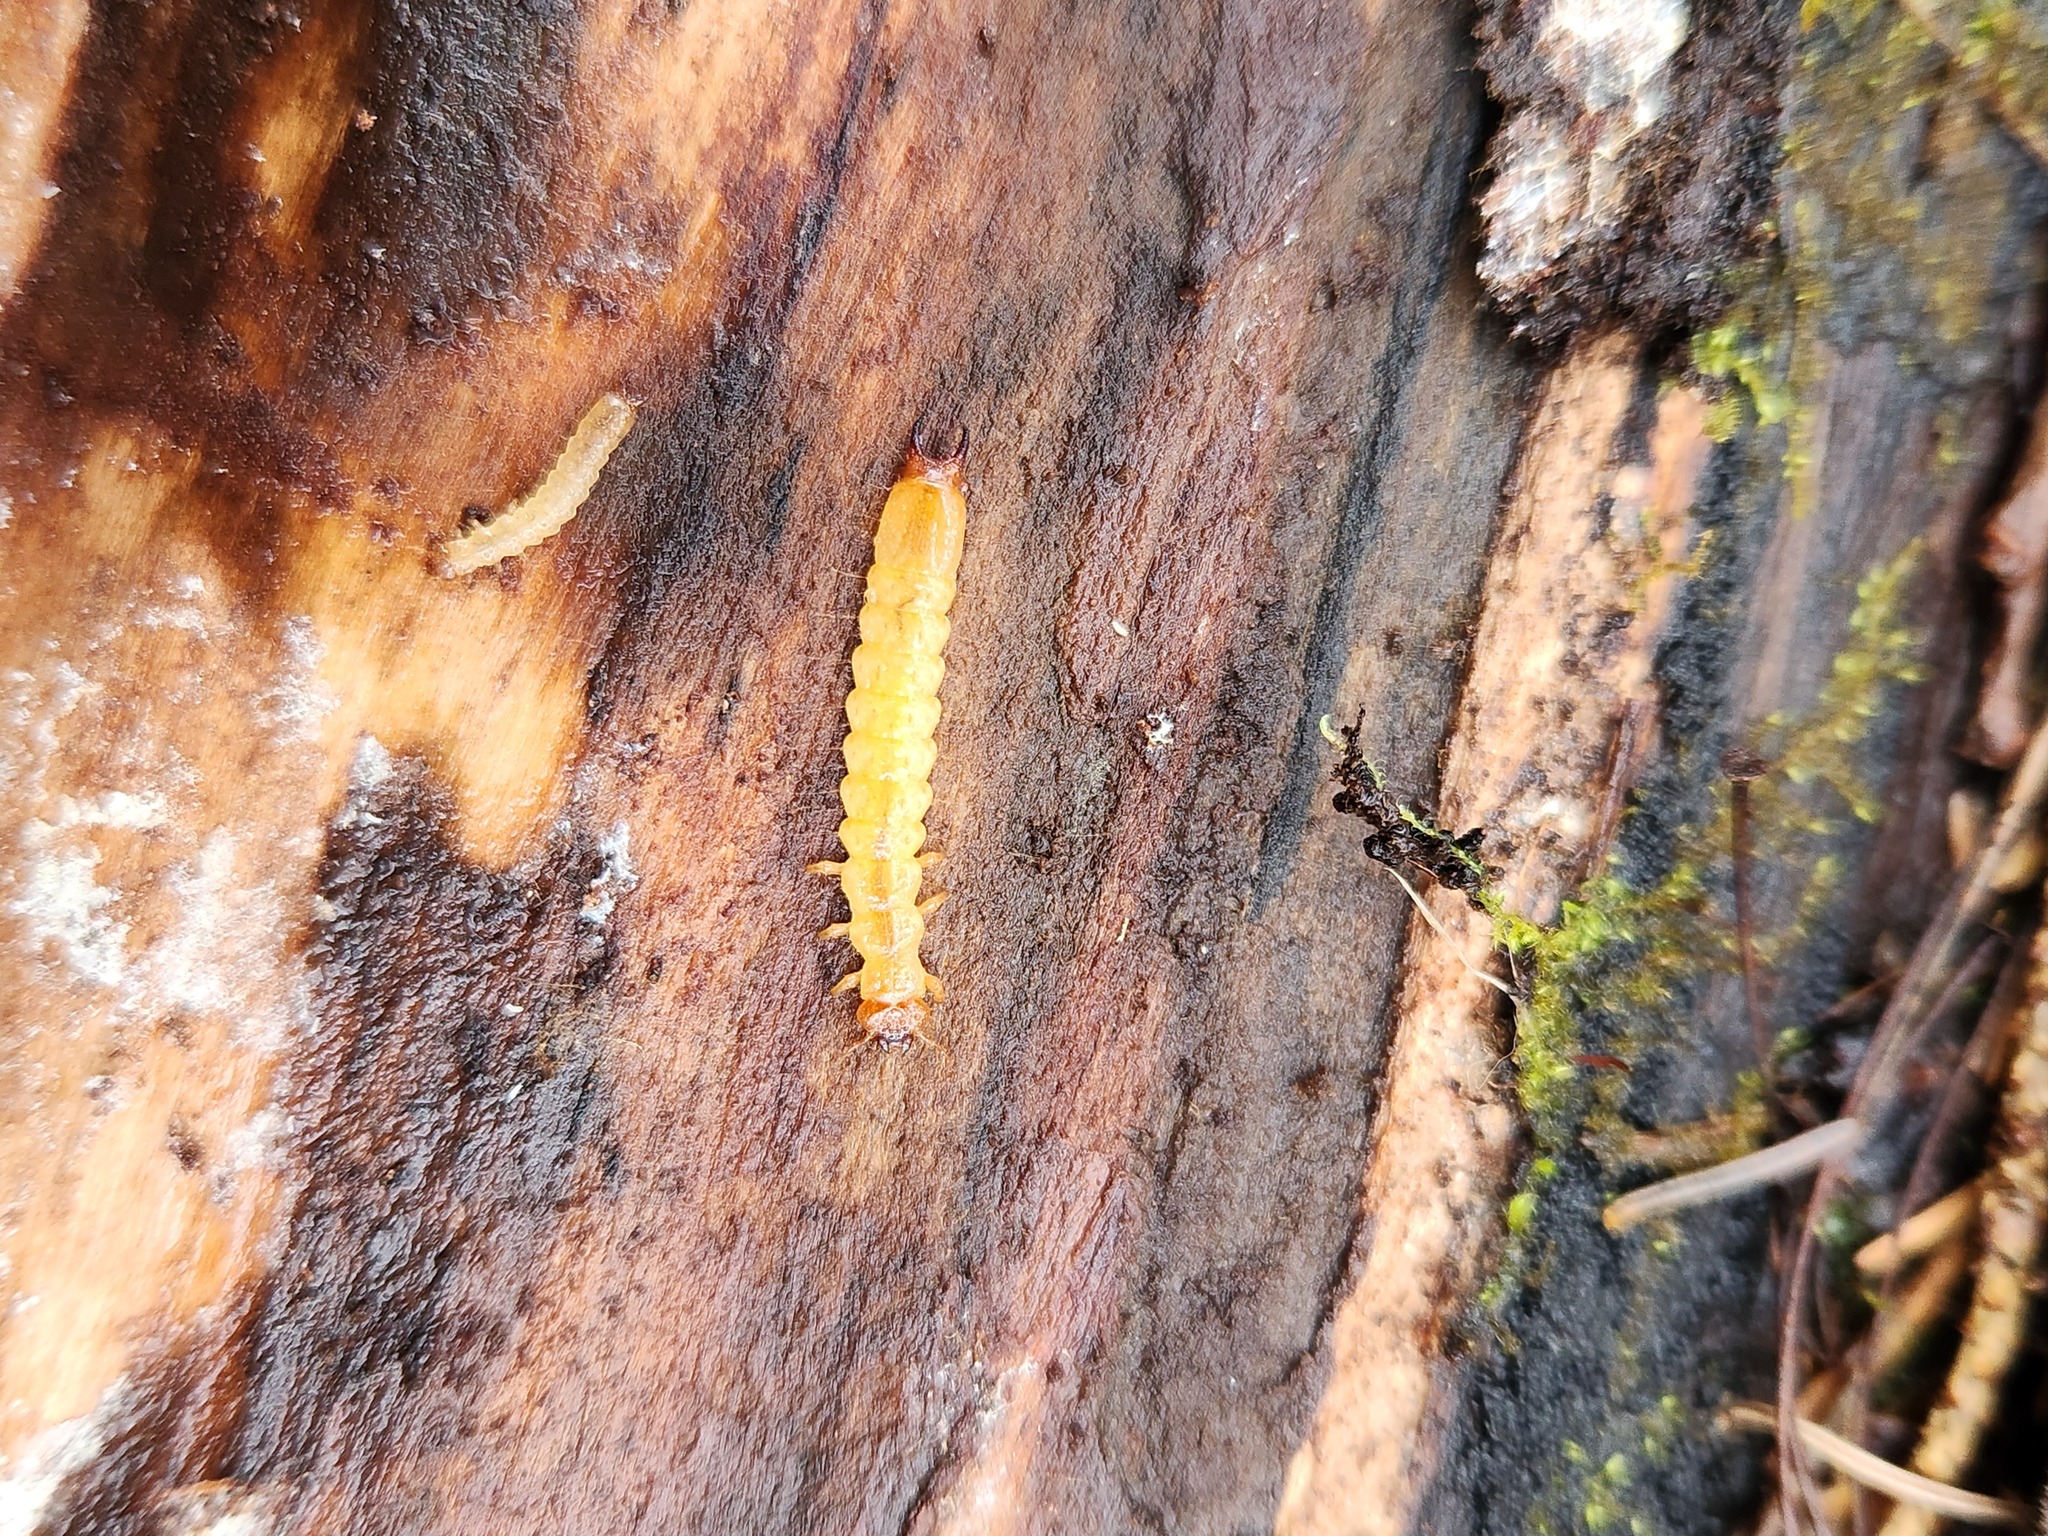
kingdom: Animalia
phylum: Arthropoda
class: Insecta
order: Coleoptera
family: Pyrochroidae
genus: Dendroides
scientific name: Dendroides canadensis
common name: Canada fire-colored beetle
